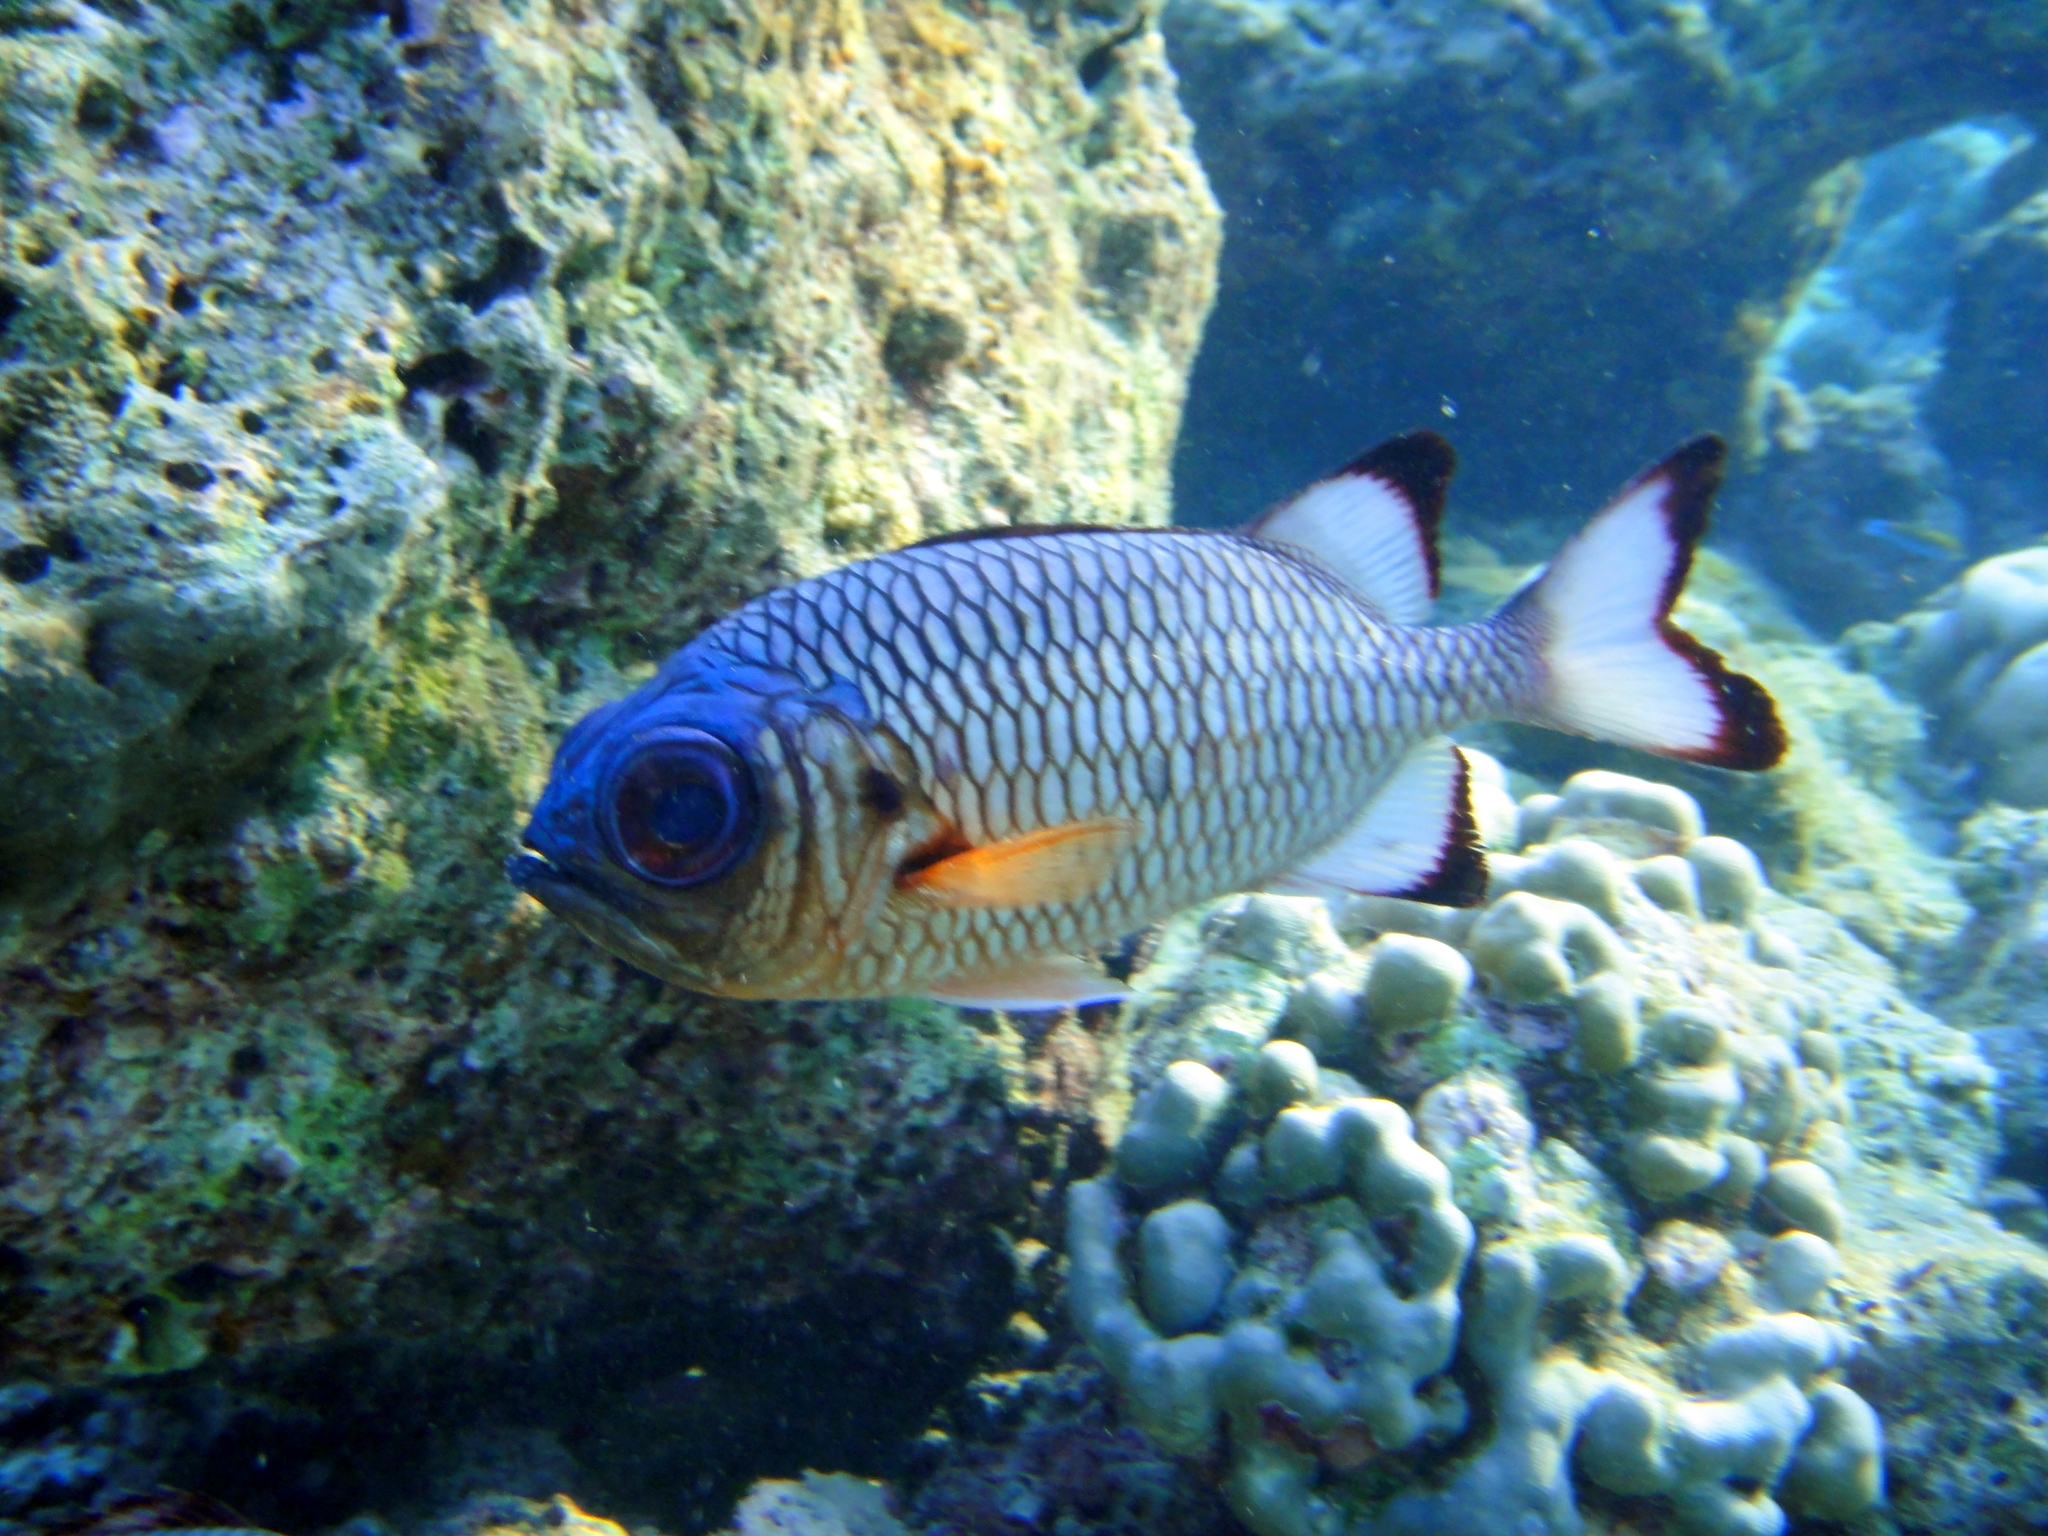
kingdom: Animalia
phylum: Chordata
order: Beryciformes
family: Holocentridae
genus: Myripristis
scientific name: Myripristis adusta
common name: Blackfin soldierfish
